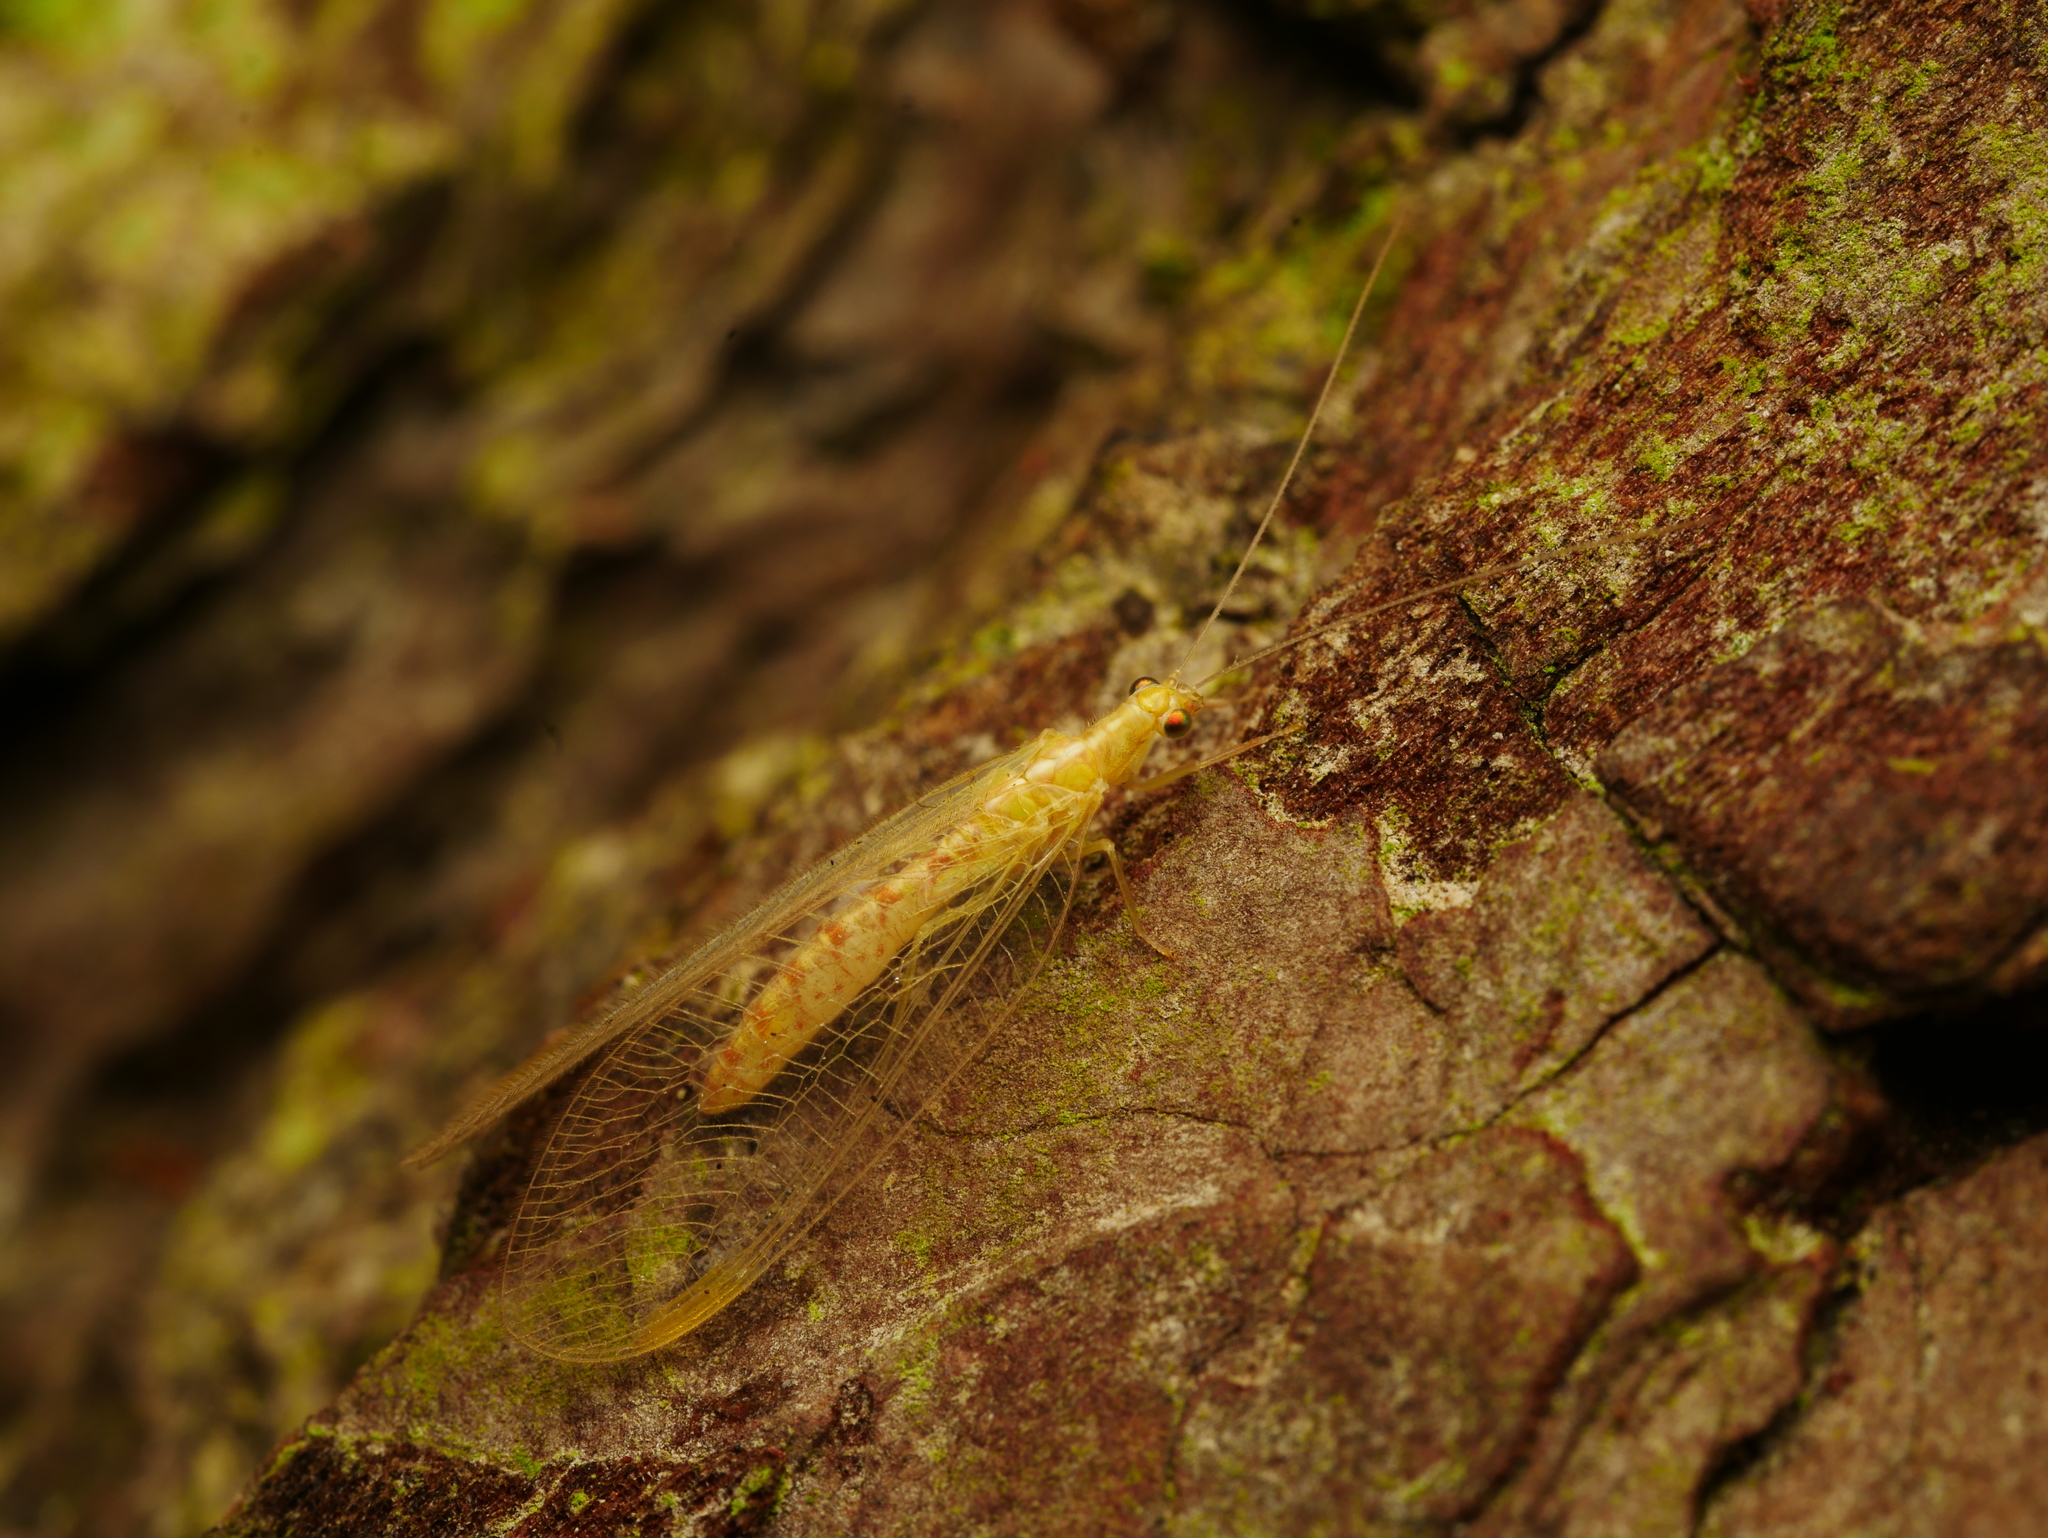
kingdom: Animalia
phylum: Arthropoda
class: Insecta
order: Neuroptera
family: Chrysopidae
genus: Chrysoperla
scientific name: Chrysoperla
